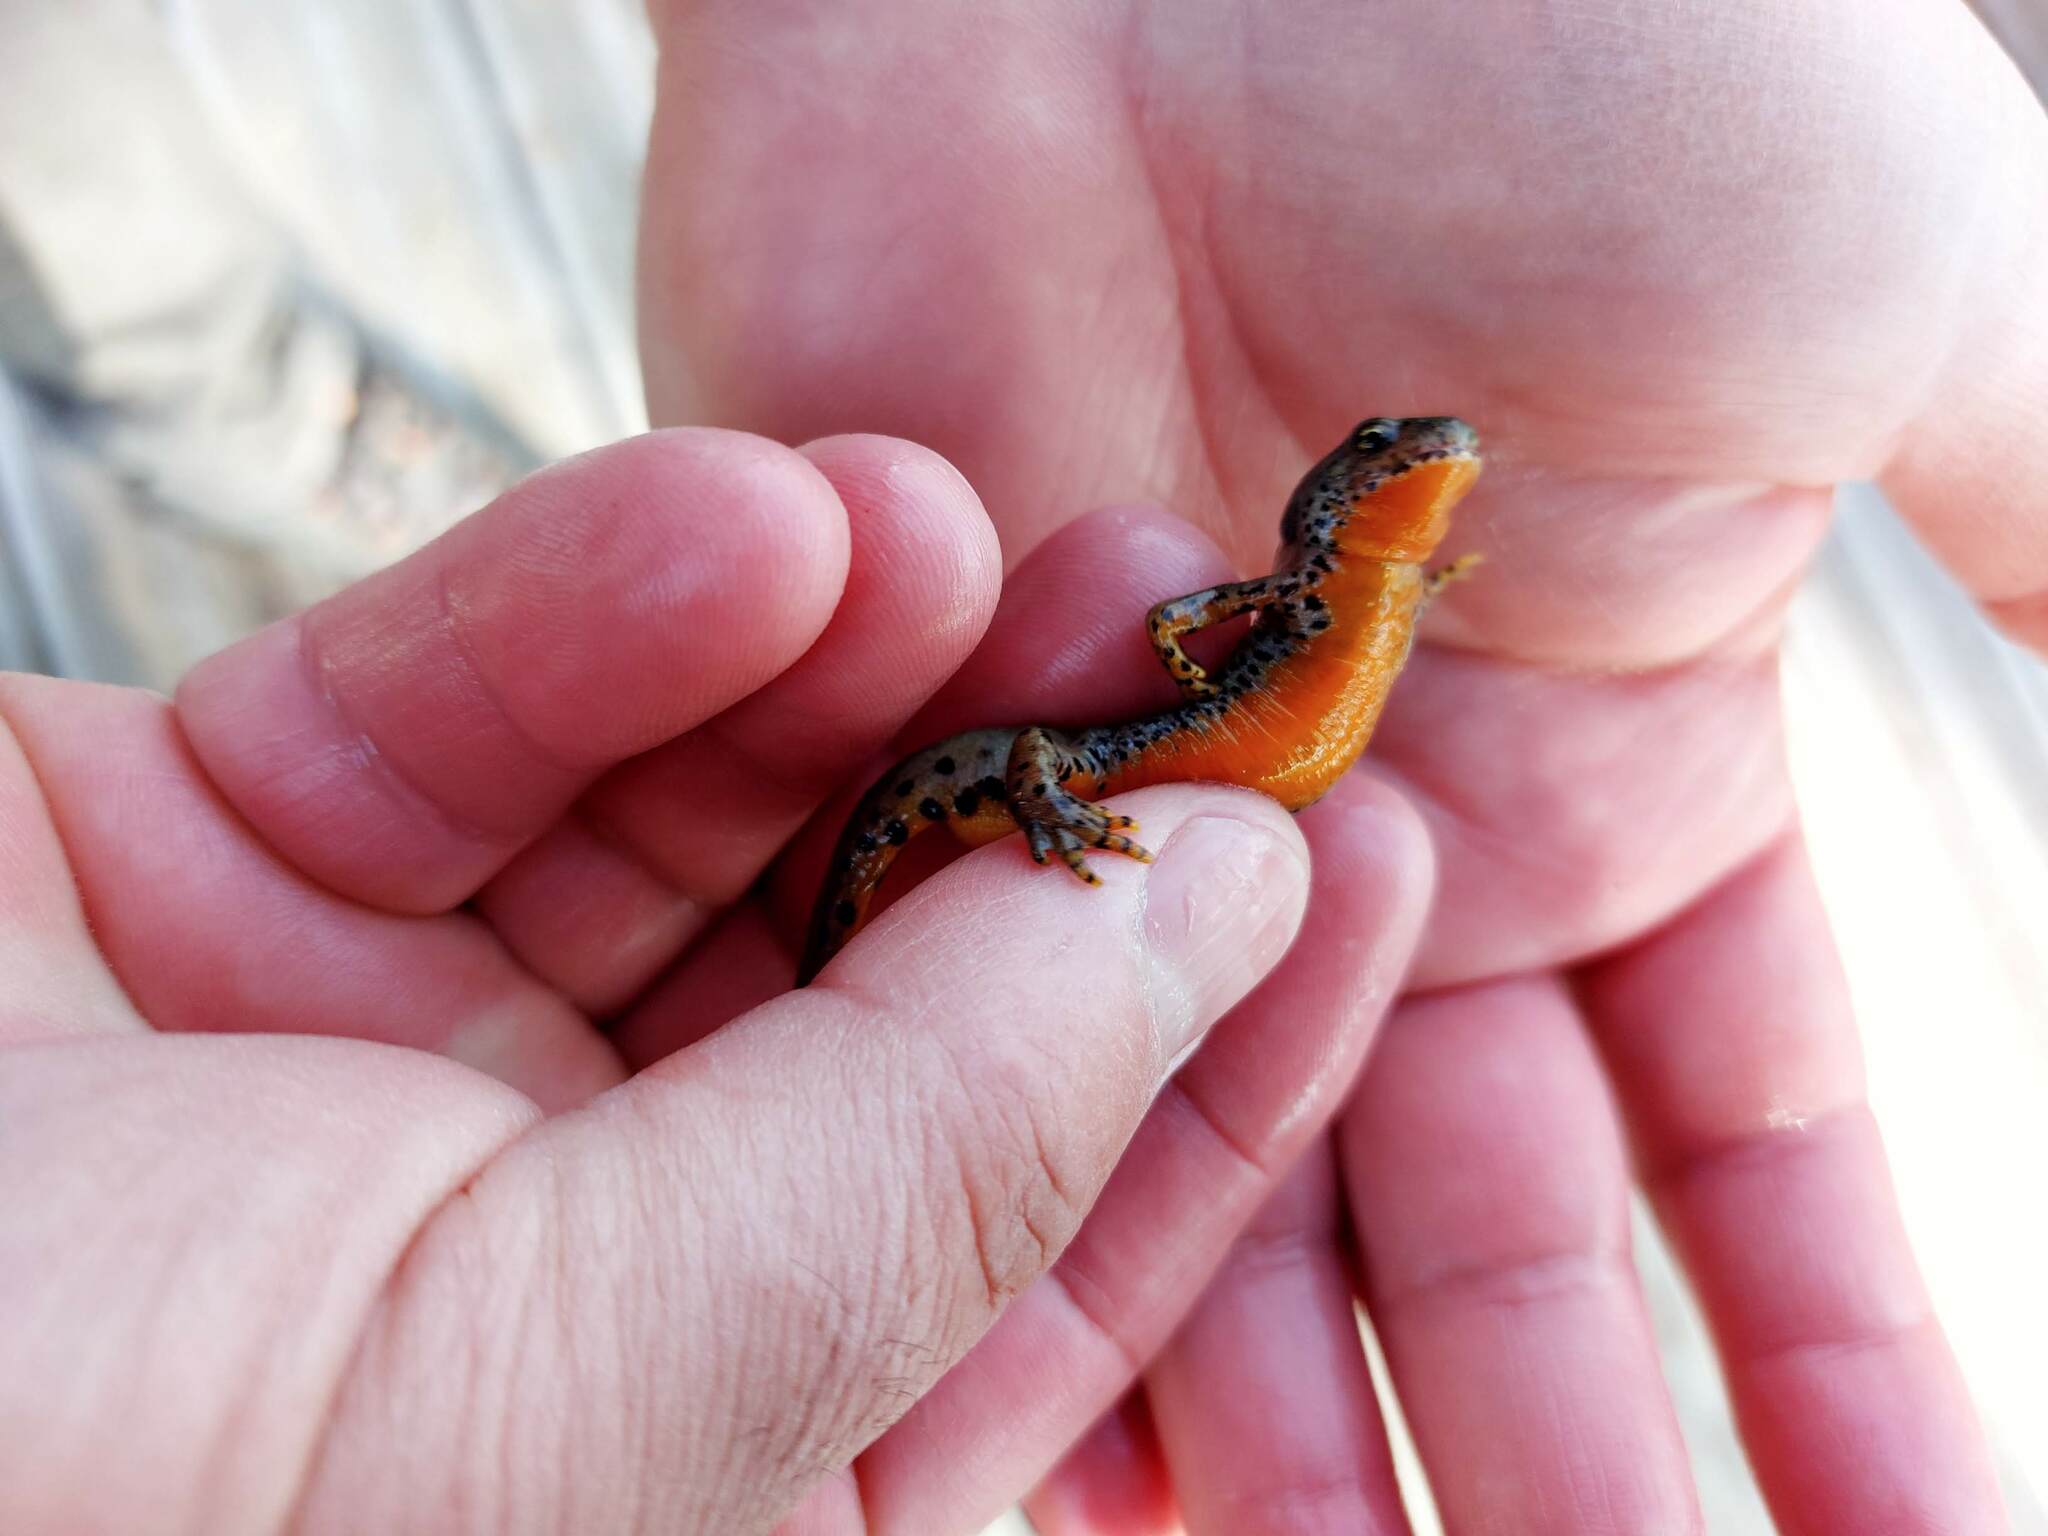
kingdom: Animalia
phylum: Chordata
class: Amphibia
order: Caudata
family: Salamandridae
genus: Ichthyosaura
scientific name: Ichthyosaura alpestris
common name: Alpine newt
